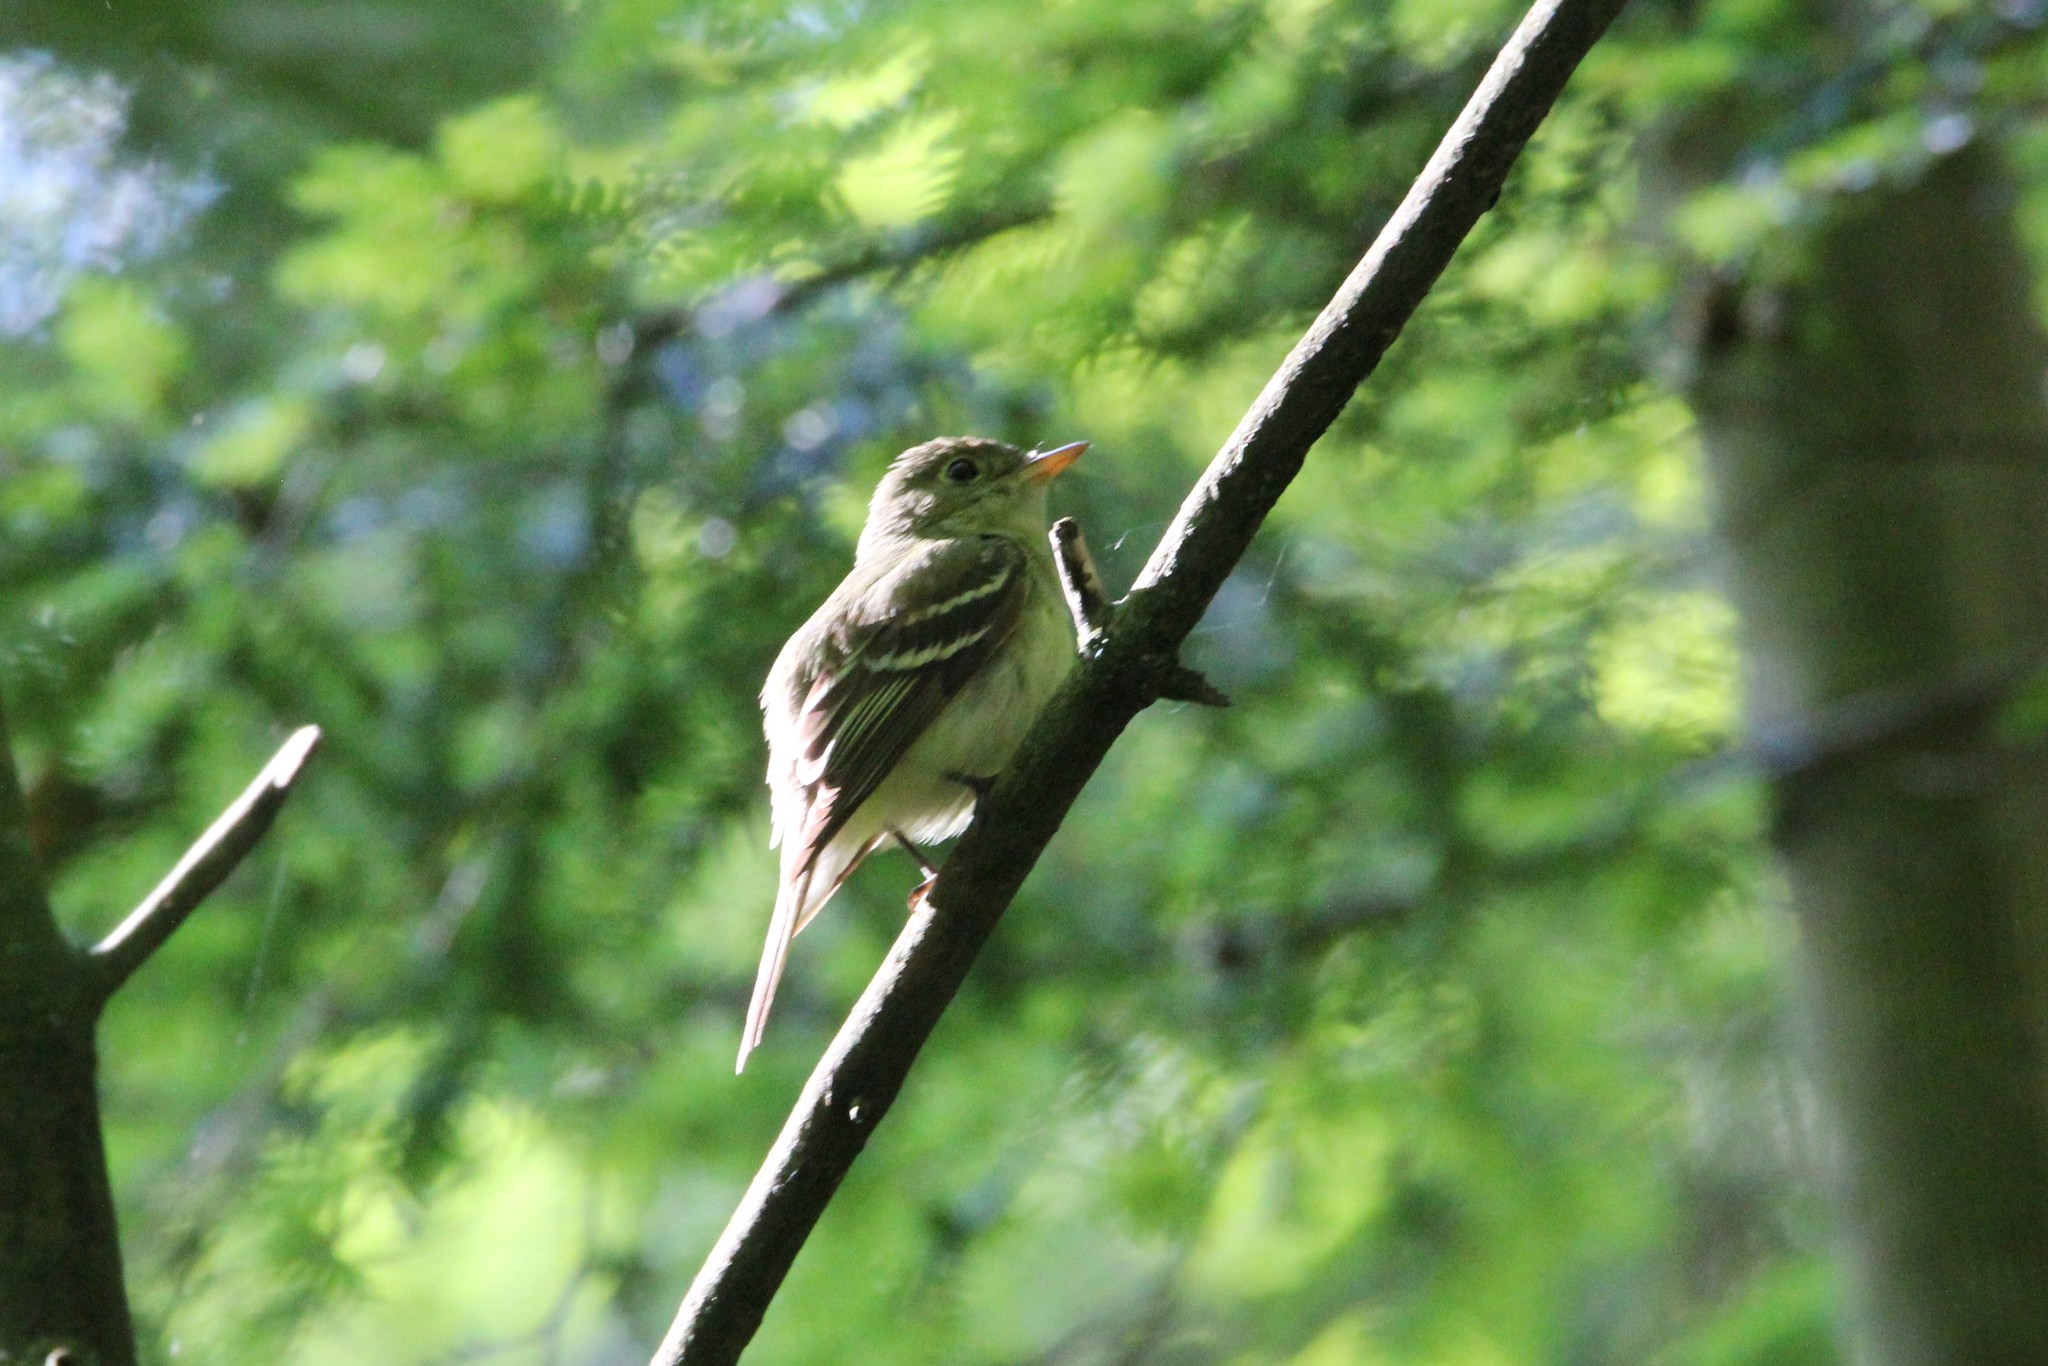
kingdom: Animalia
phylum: Chordata
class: Aves
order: Passeriformes
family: Tyrannidae
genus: Empidonax
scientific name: Empidonax virescens
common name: Acadian flycatcher
